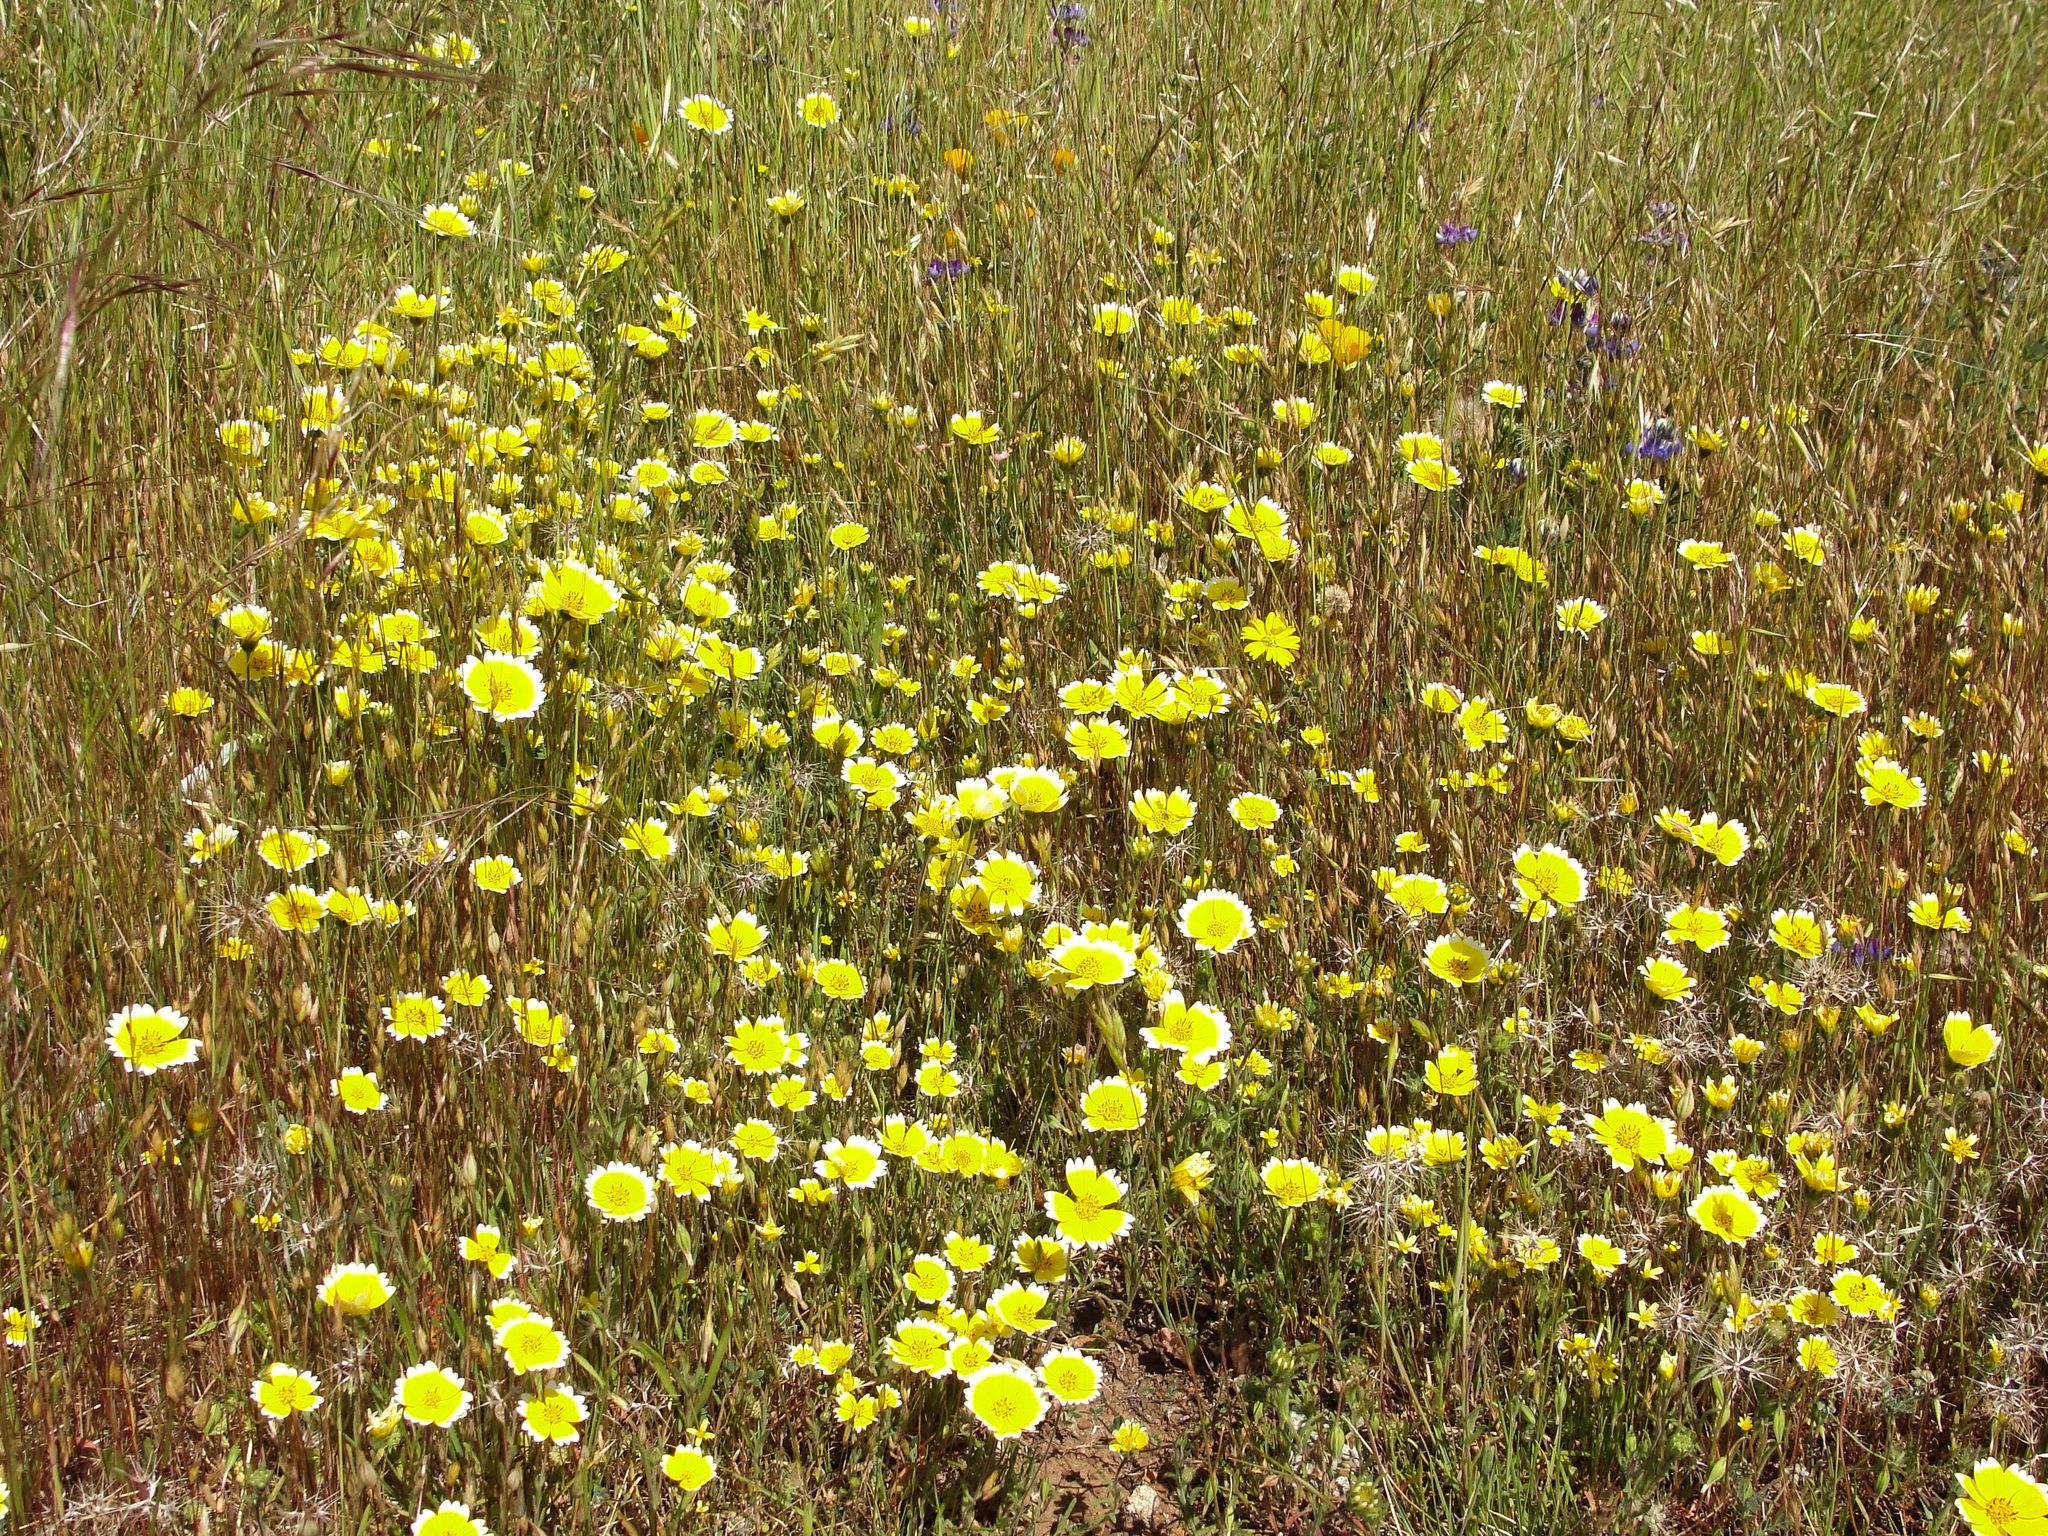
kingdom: Plantae
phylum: Tracheophyta
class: Magnoliopsida
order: Asterales
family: Asteraceae
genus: Layia
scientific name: Layia platyglossa
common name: Tidy-tips
